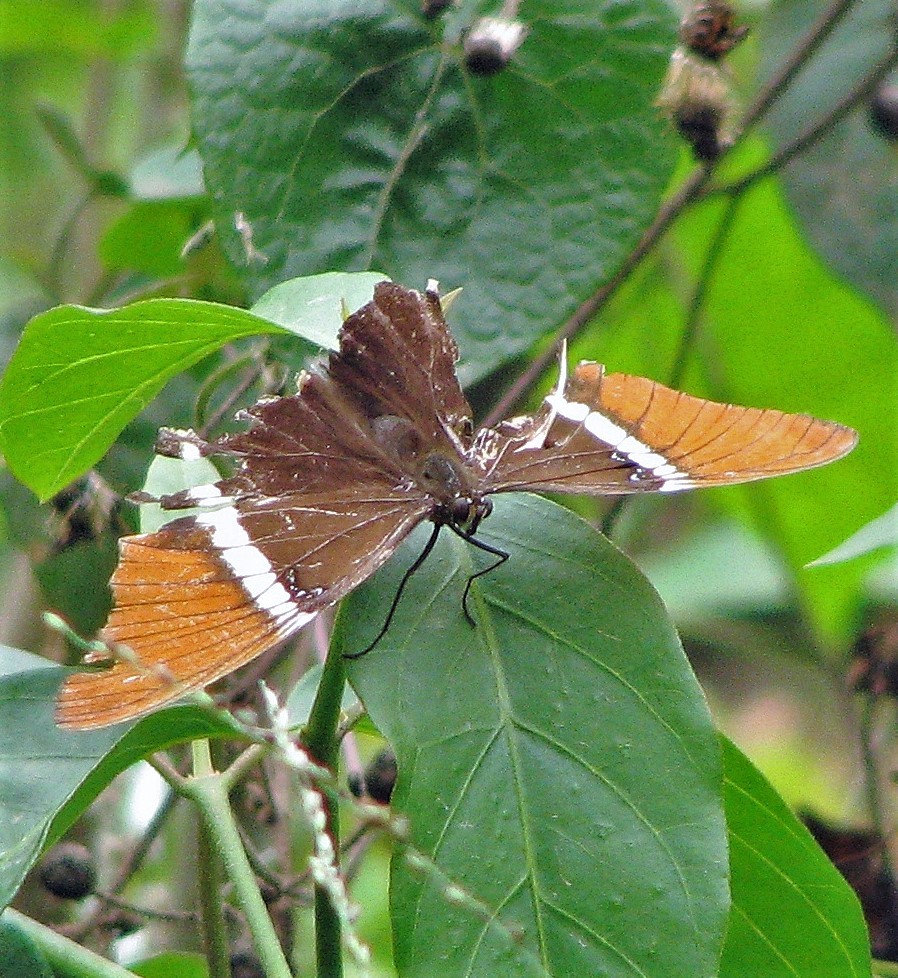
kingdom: Animalia
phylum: Arthropoda
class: Insecta
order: Lepidoptera
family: Nymphalidae
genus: Siproeta
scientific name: Siproeta epaphus
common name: Rusty-tipped page
